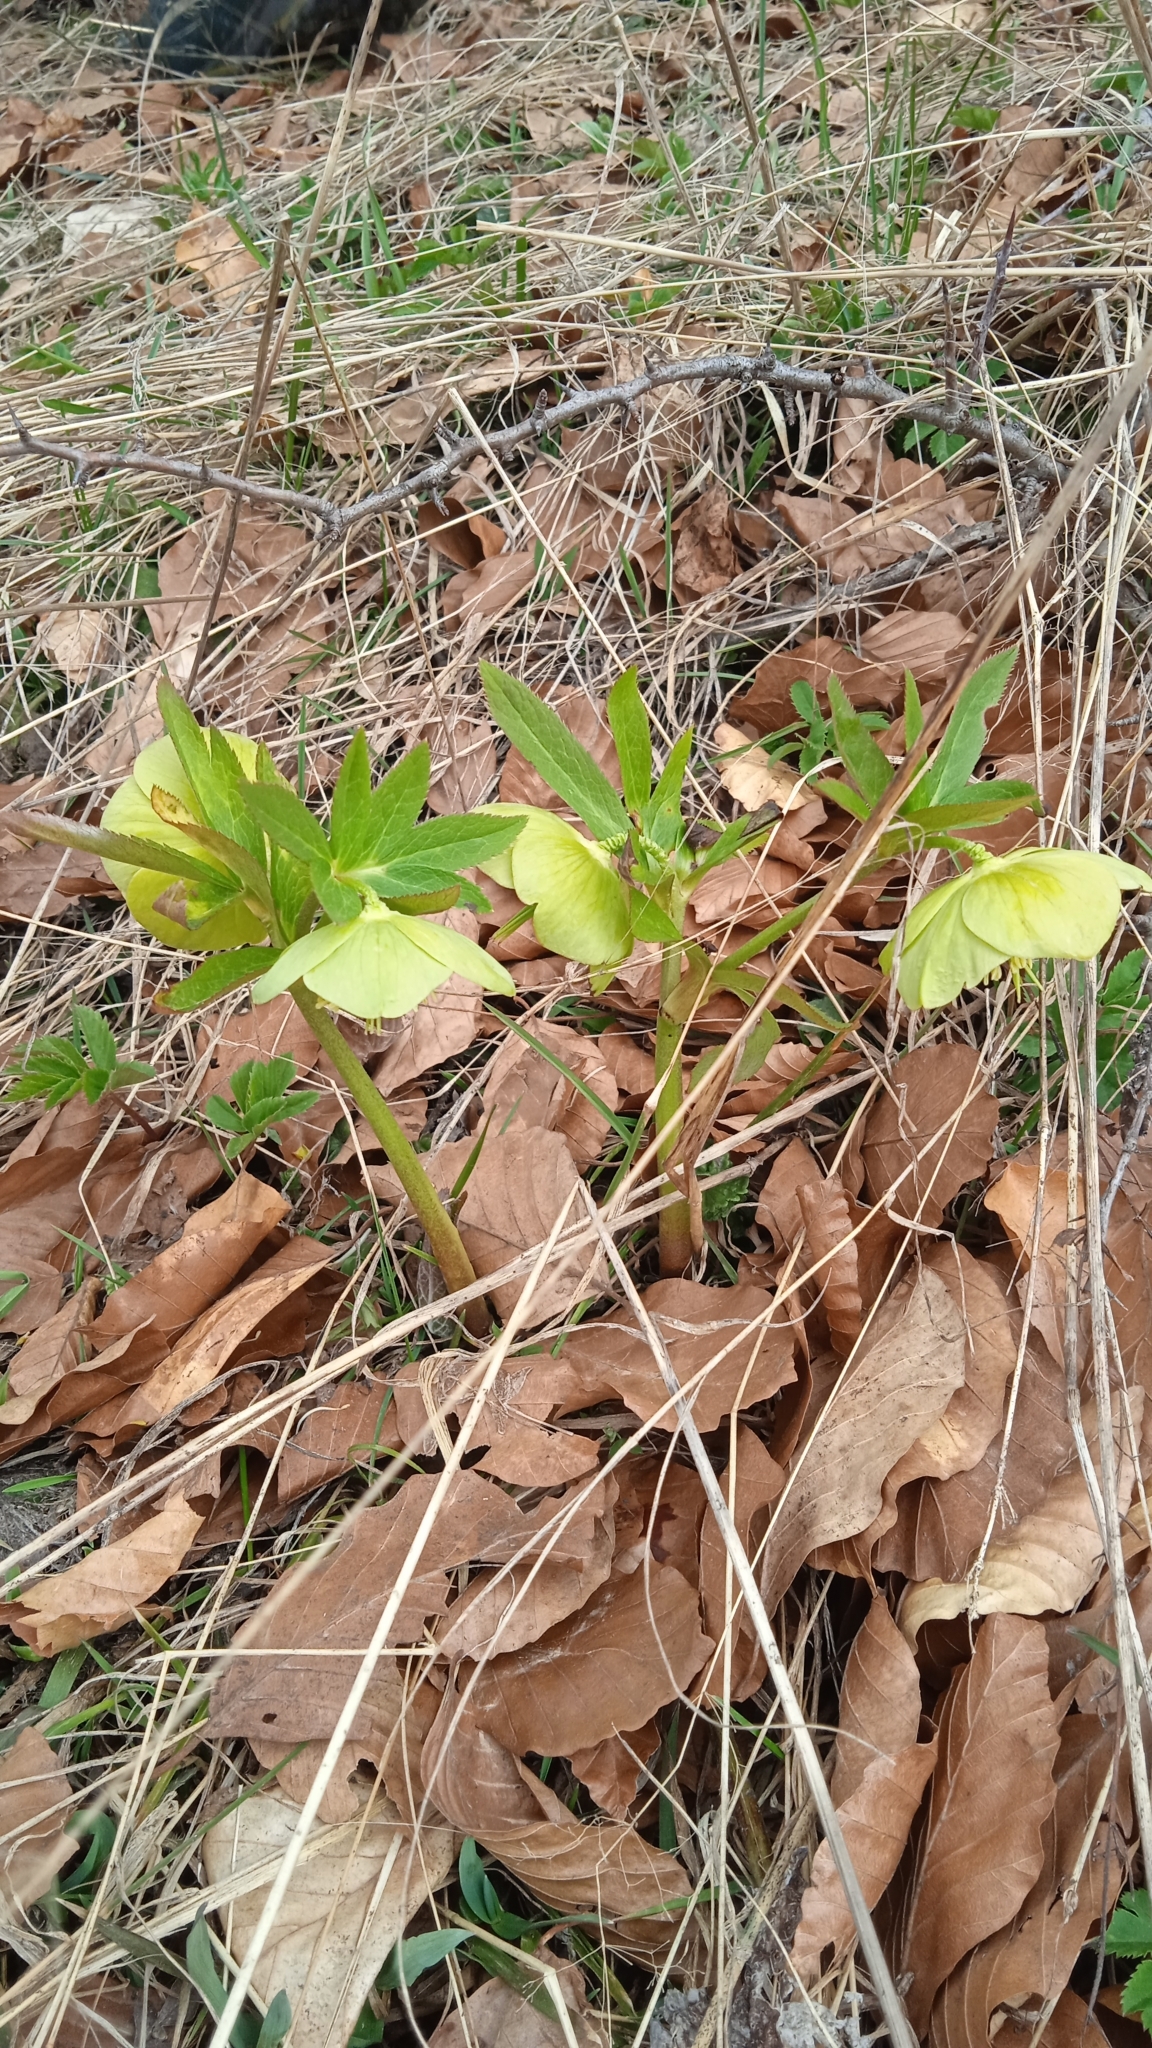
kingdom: Plantae
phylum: Tracheophyta
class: Magnoliopsida
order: Ranunculales
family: Ranunculaceae
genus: Helleborus
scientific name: Helleborus odorus
